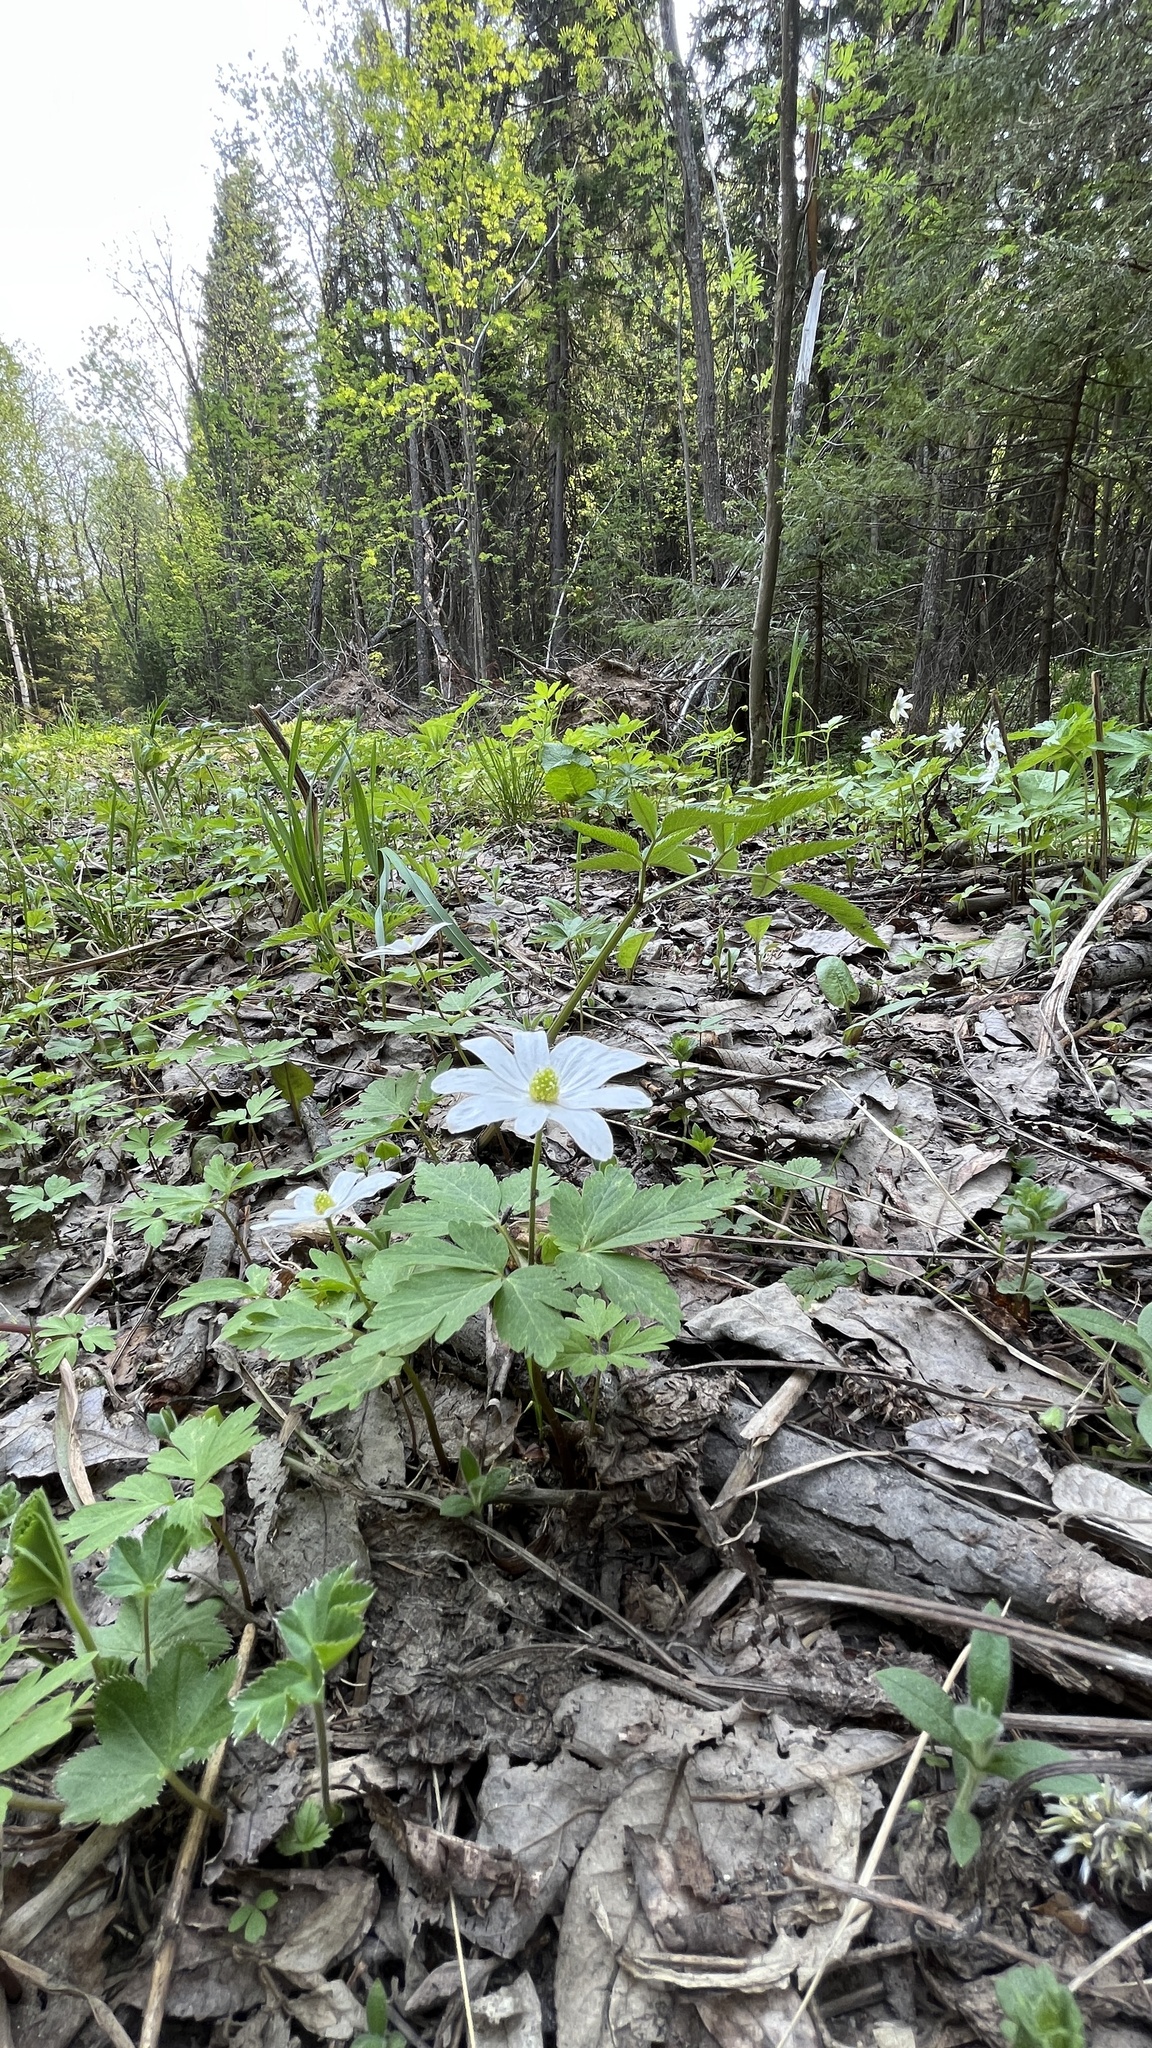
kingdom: Plantae
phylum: Tracheophyta
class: Magnoliopsida
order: Ranunculales
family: Ranunculaceae
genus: Anemone
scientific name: Anemone altaica
